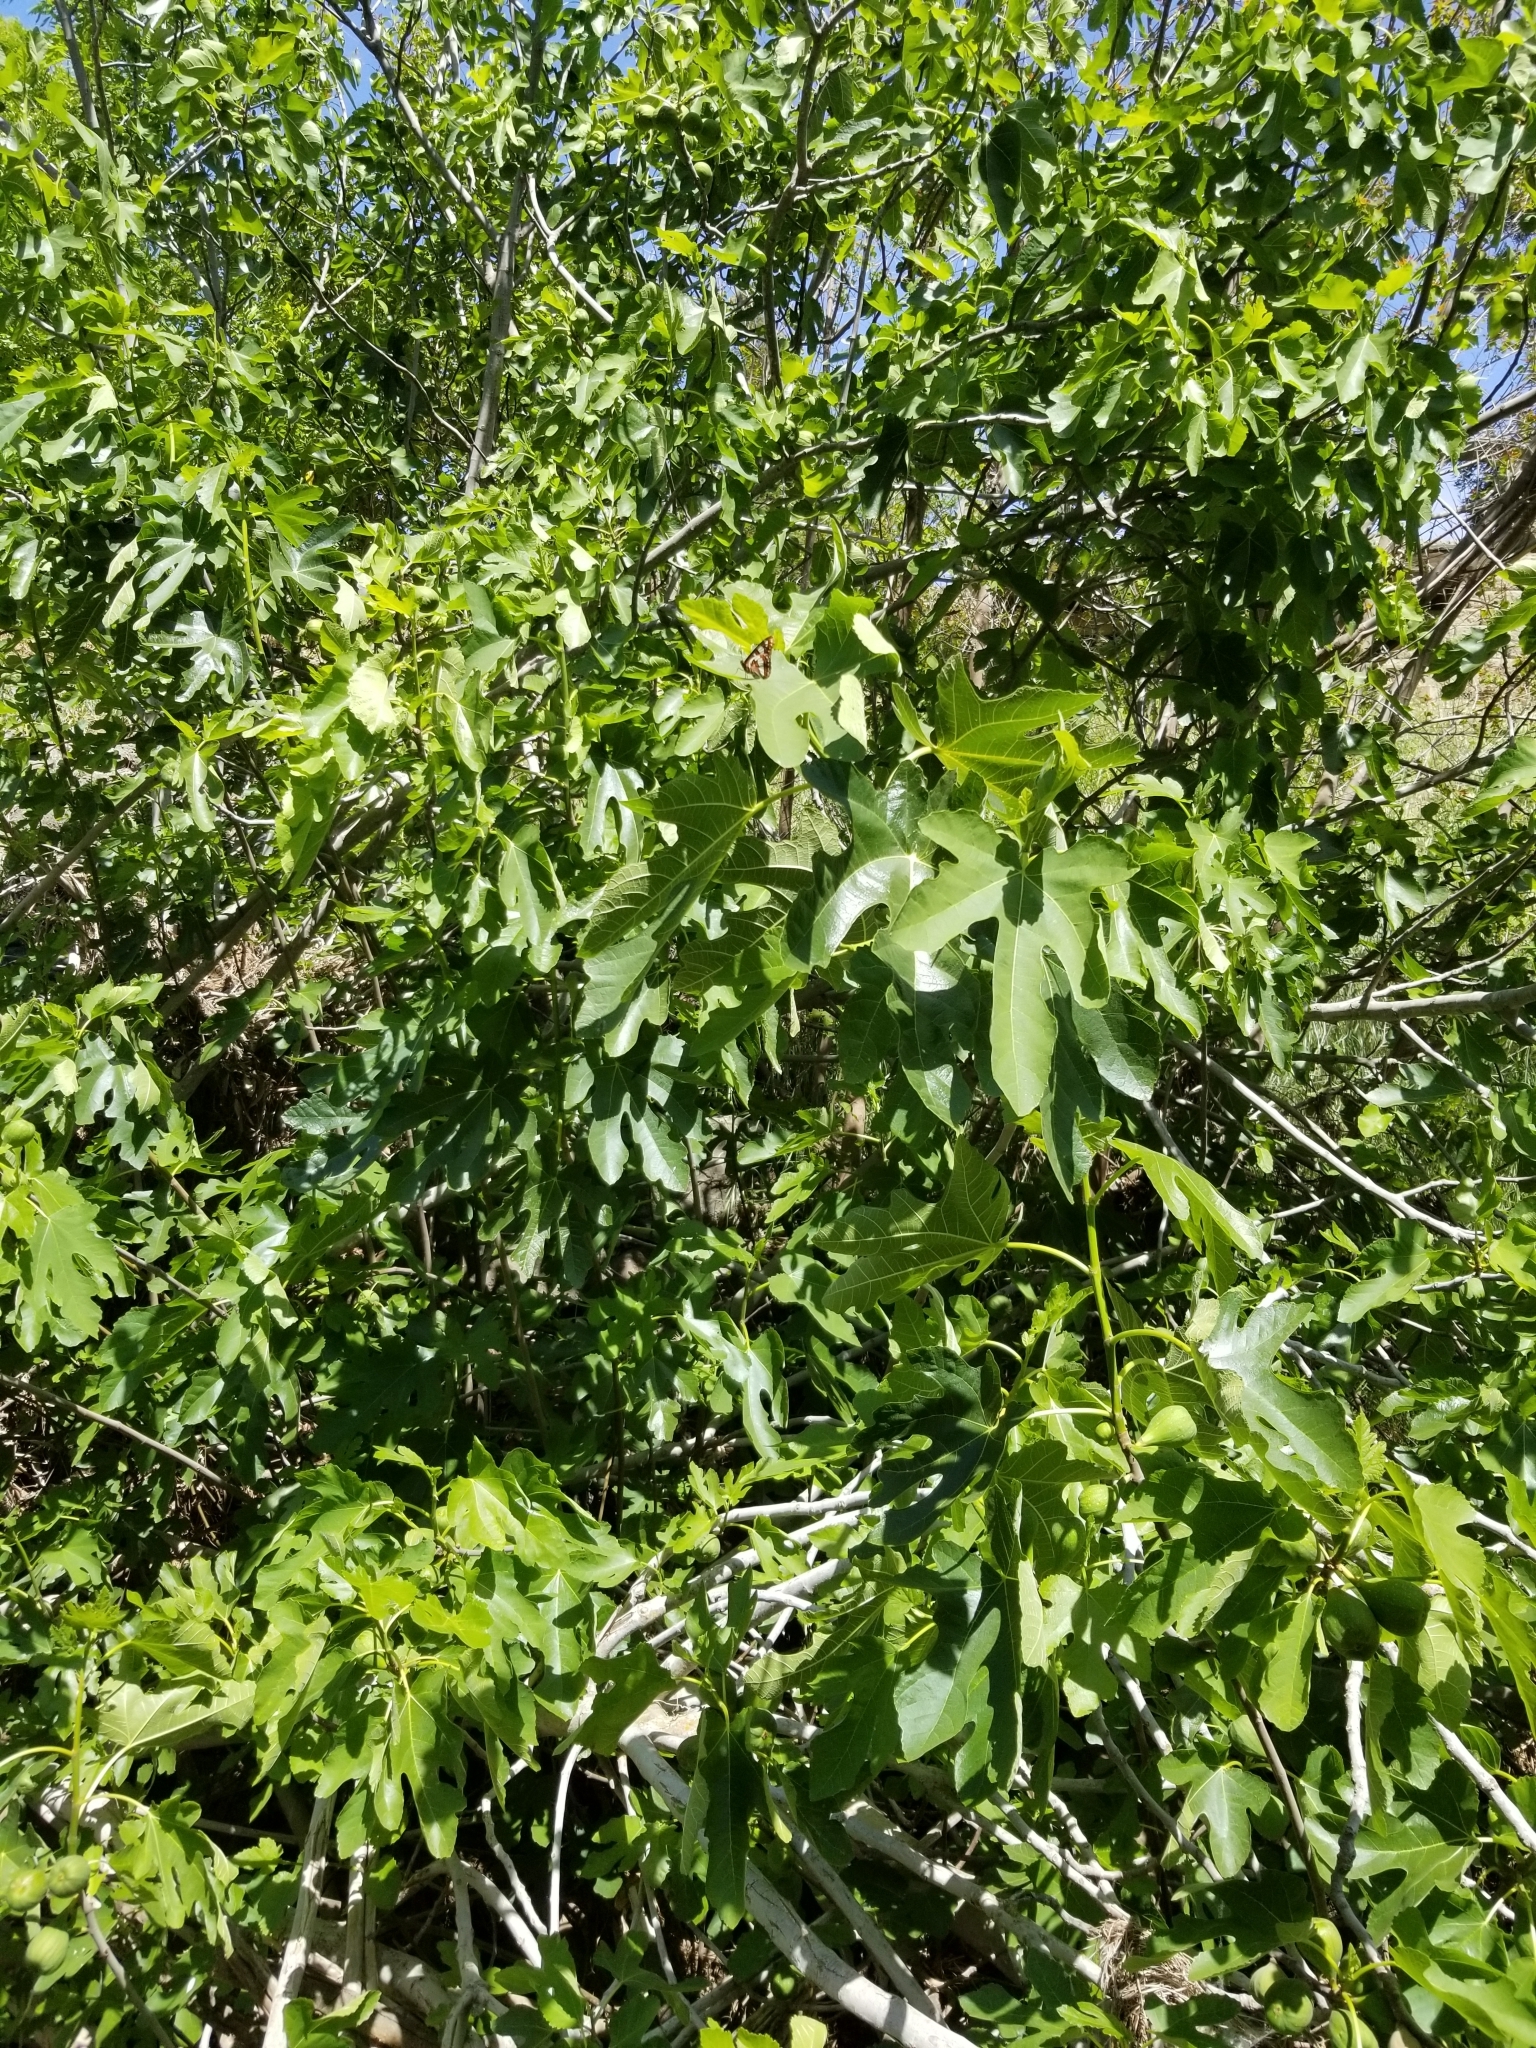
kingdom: Animalia
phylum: Arthropoda
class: Insecta
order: Lepidoptera
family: Nymphalidae
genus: Limenitis
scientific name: Limenitis lorquini
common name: Lorquin's admiral
